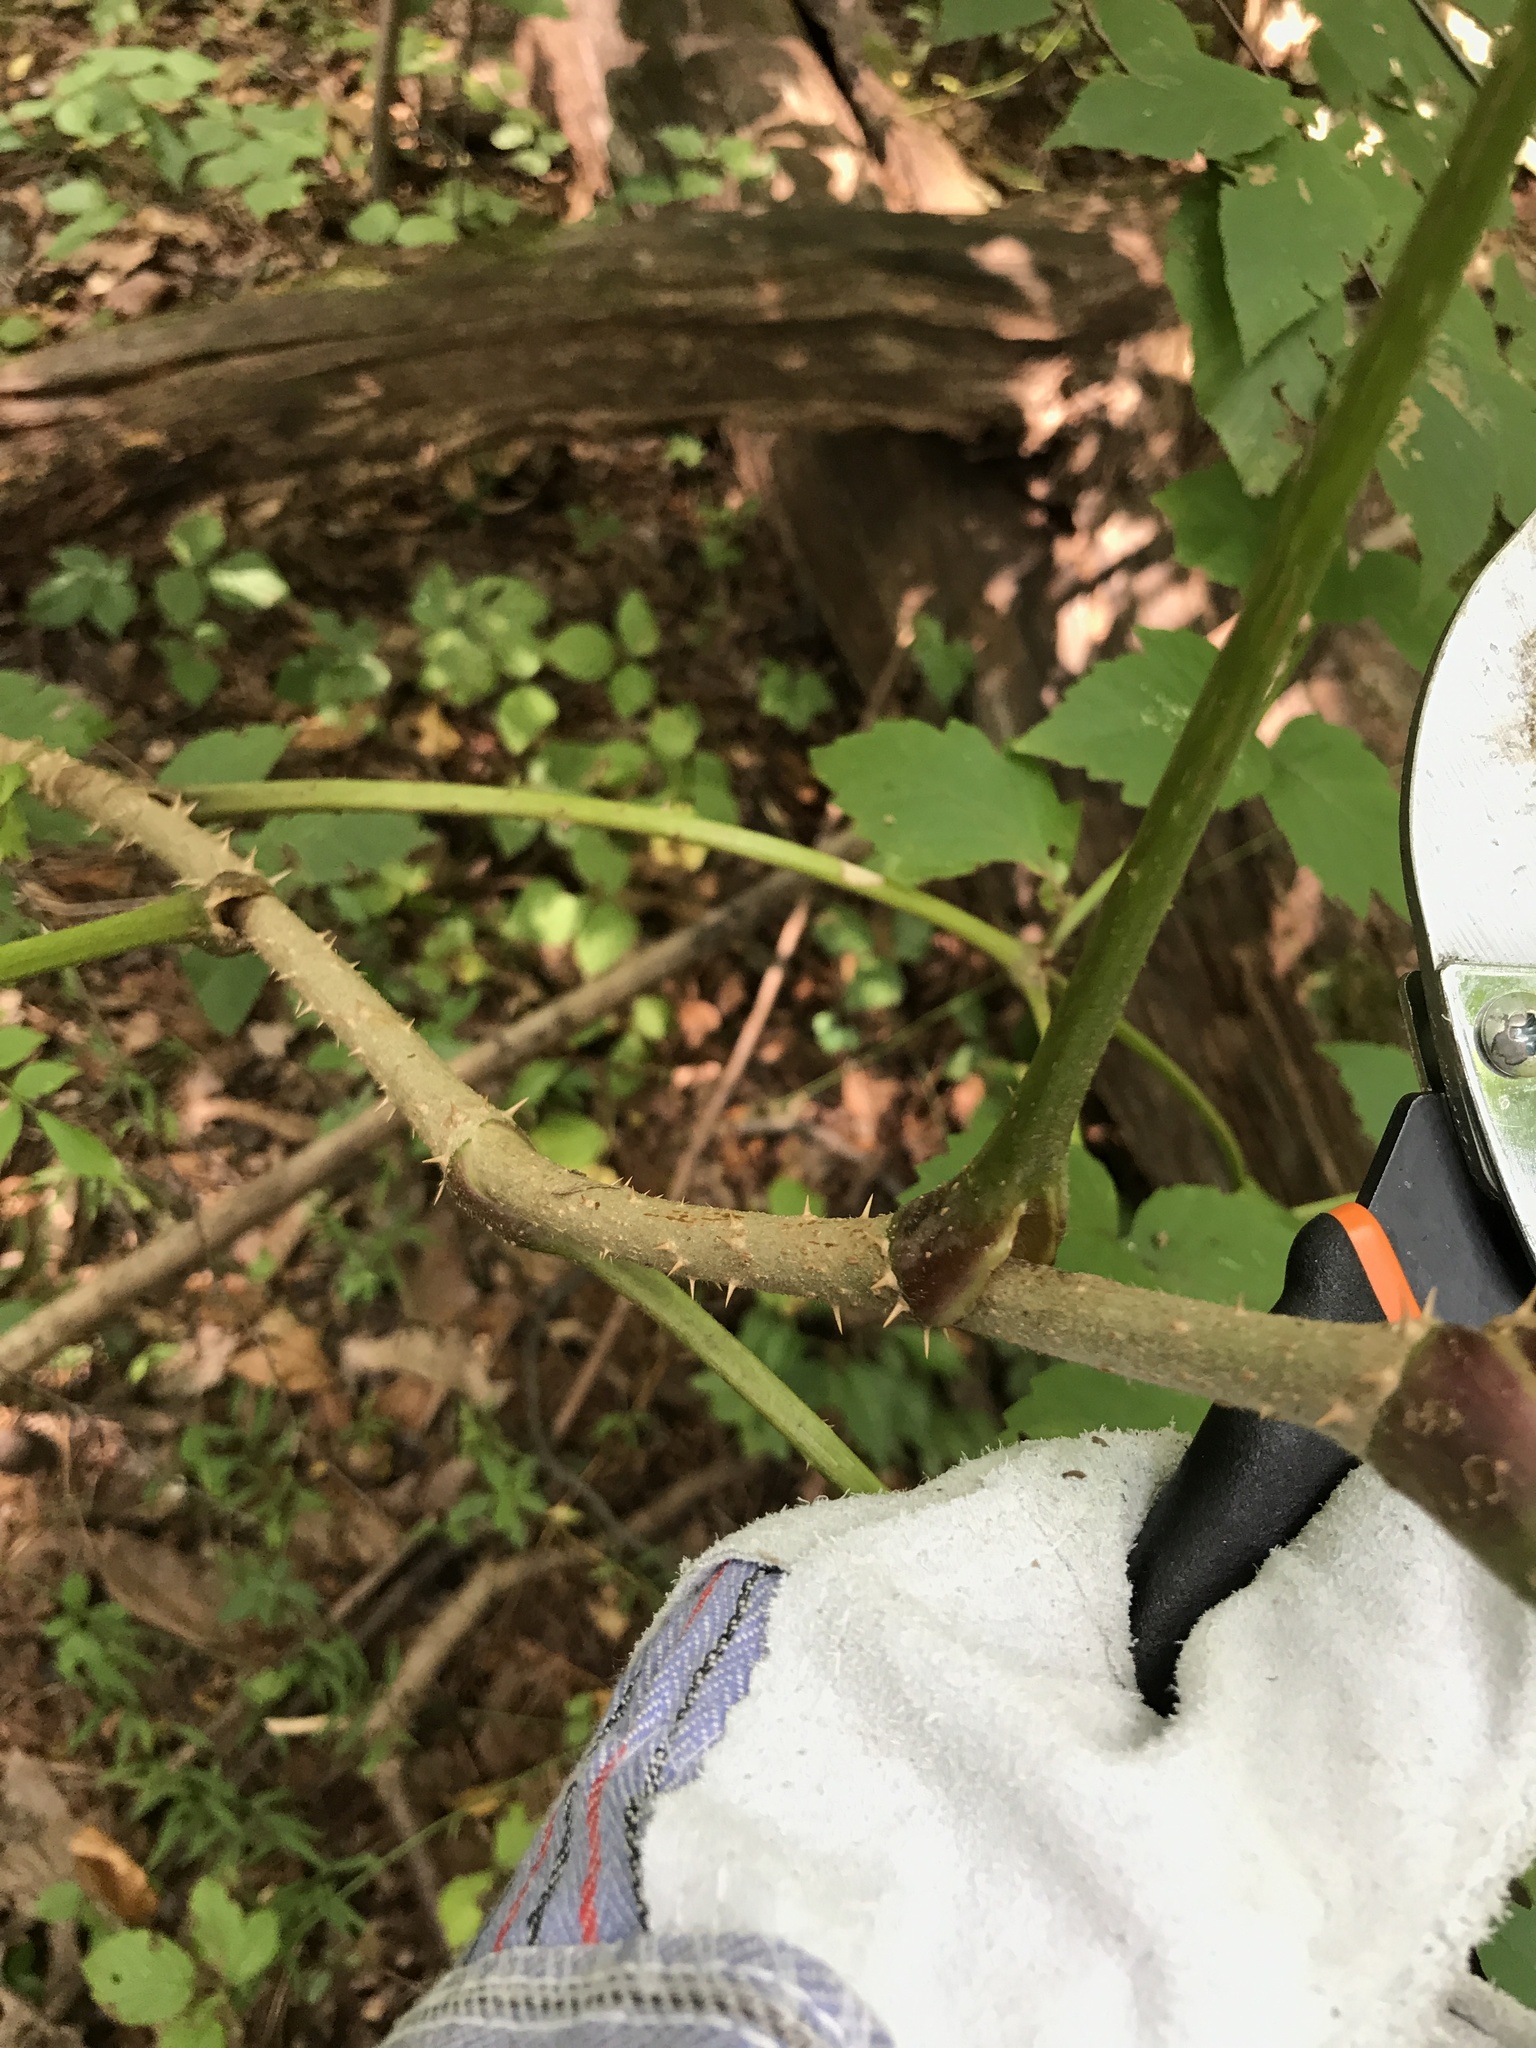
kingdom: Plantae
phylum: Tracheophyta
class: Magnoliopsida
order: Apiales
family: Araliaceae
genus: Aralia
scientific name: Aralia elata
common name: Japanese angelica-tree
